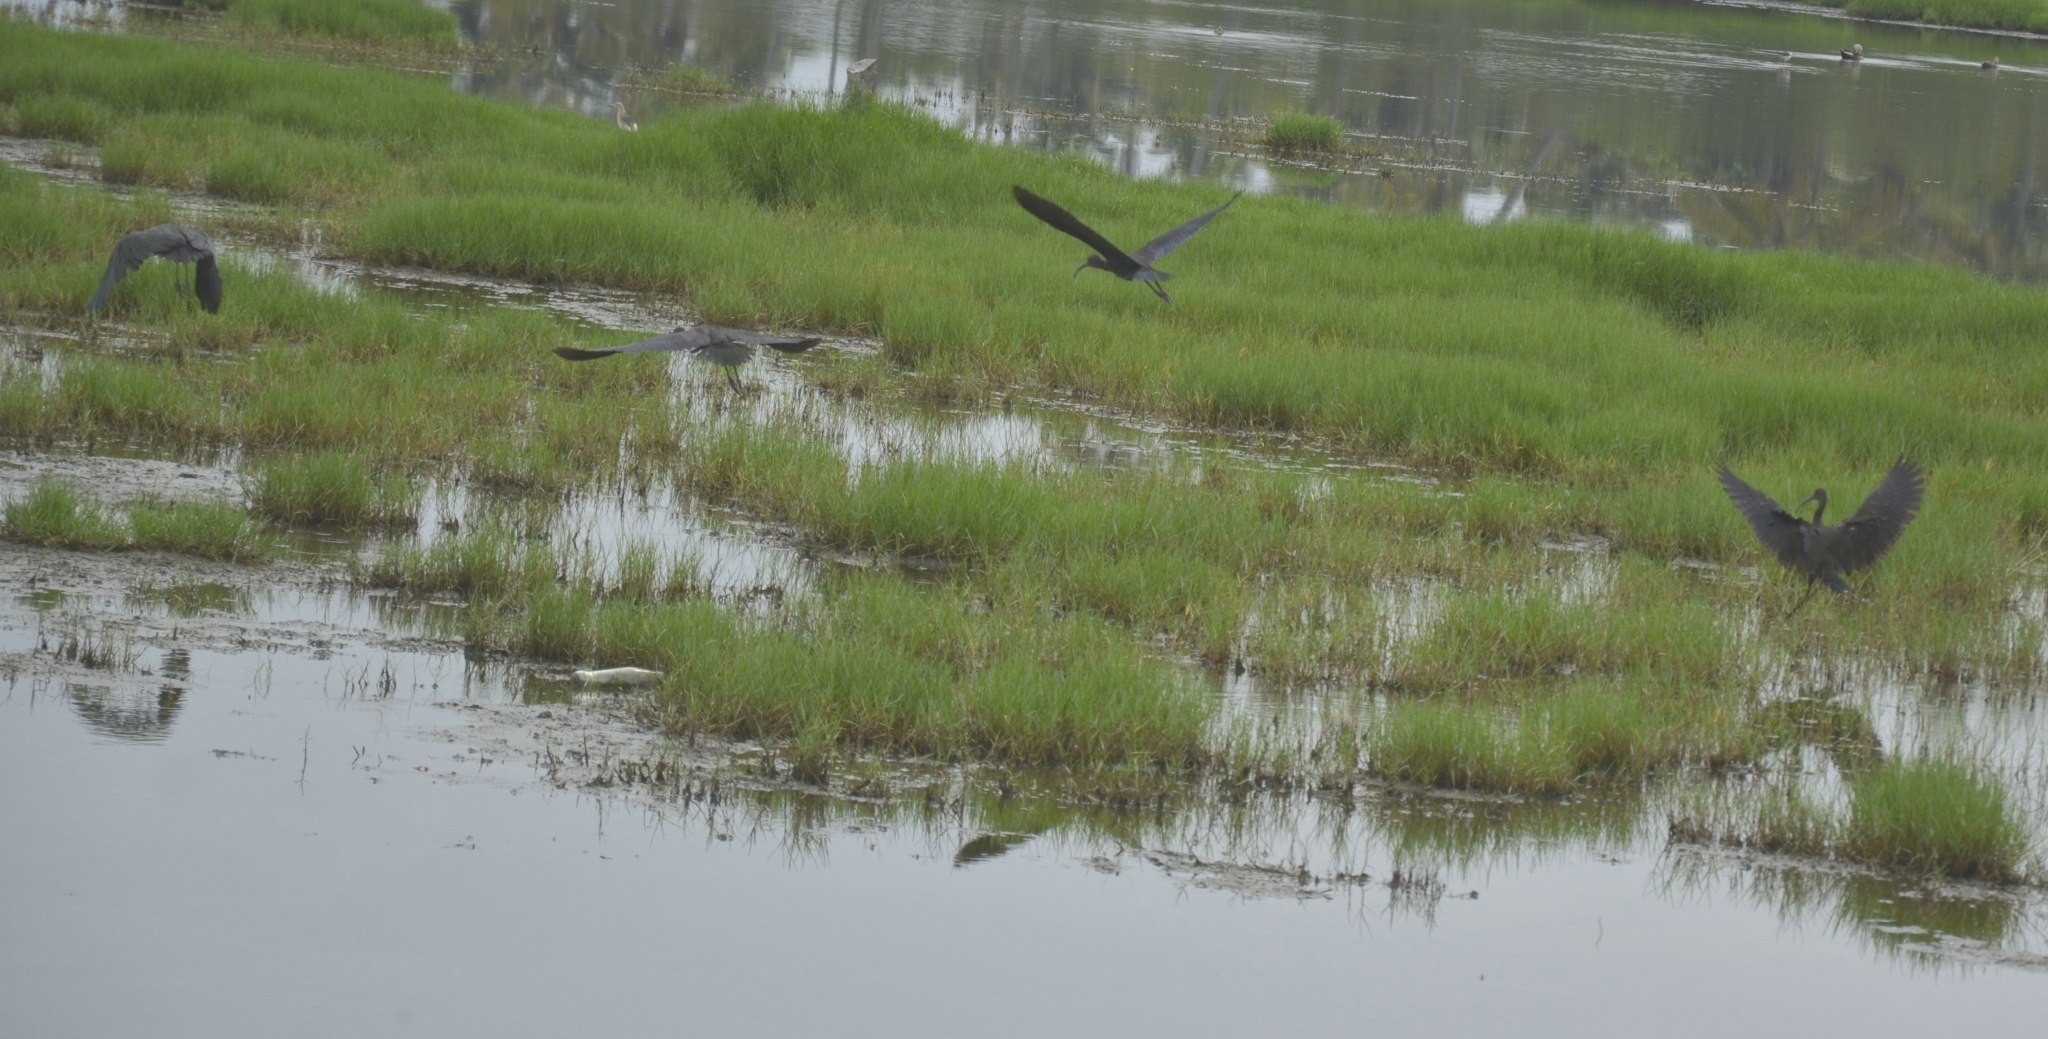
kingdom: Animalia
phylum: Chordata
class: Aves
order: Pelecaniformes
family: Threskiornithidae
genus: Plegadis
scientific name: Plegadis falcinellus
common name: Glossy ibis
